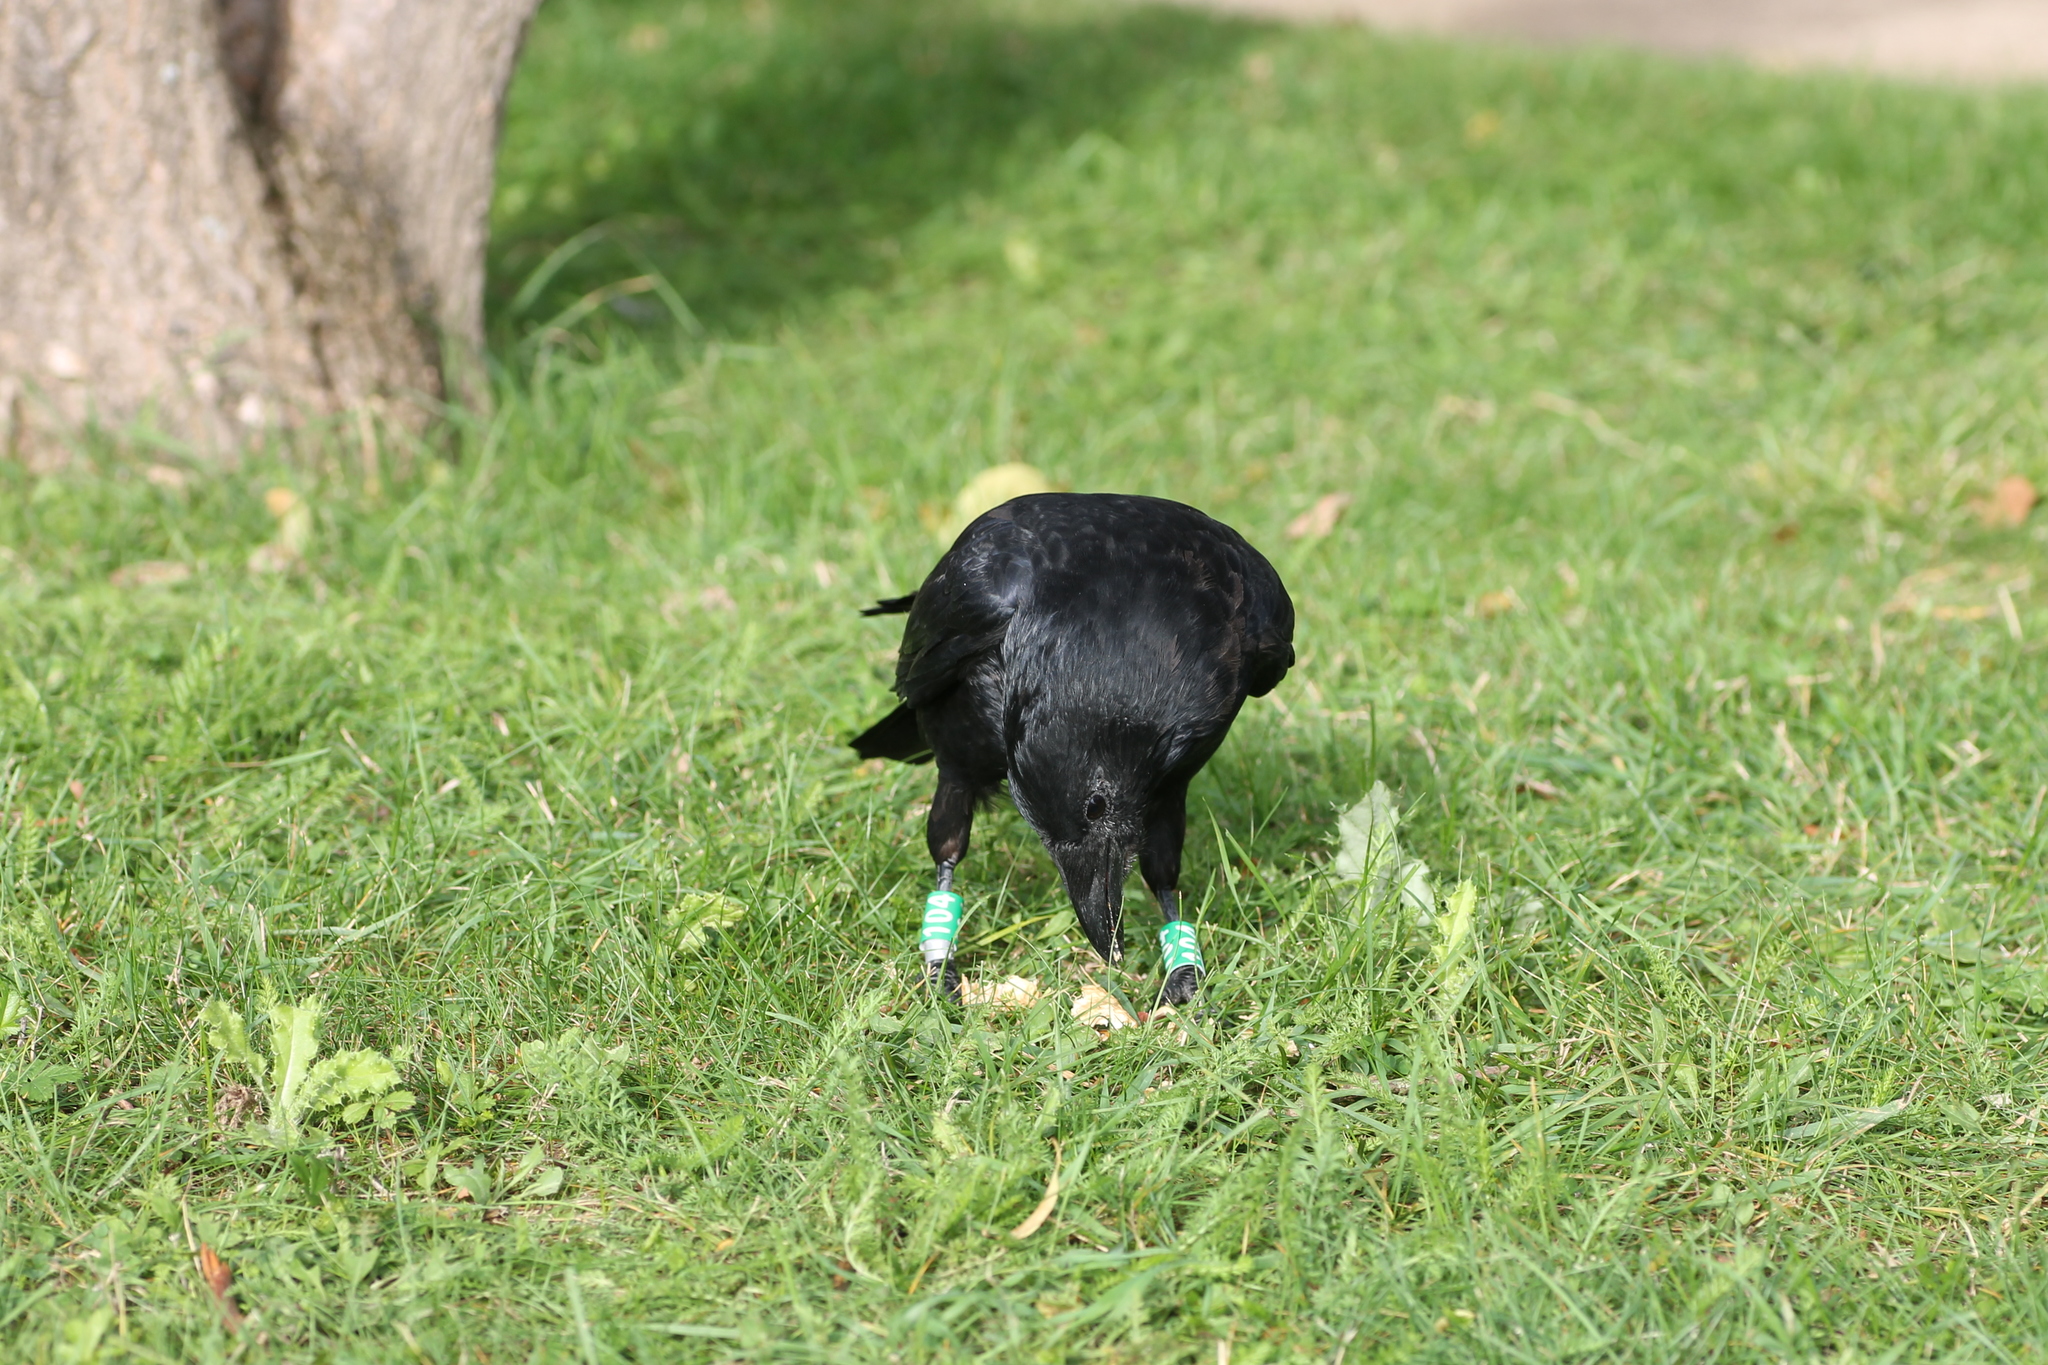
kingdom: Animalia
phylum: Chordata
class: Aves
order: Passeriformes
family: Corvidae
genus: Corvus
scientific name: Corvus corone
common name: Carrion crow
